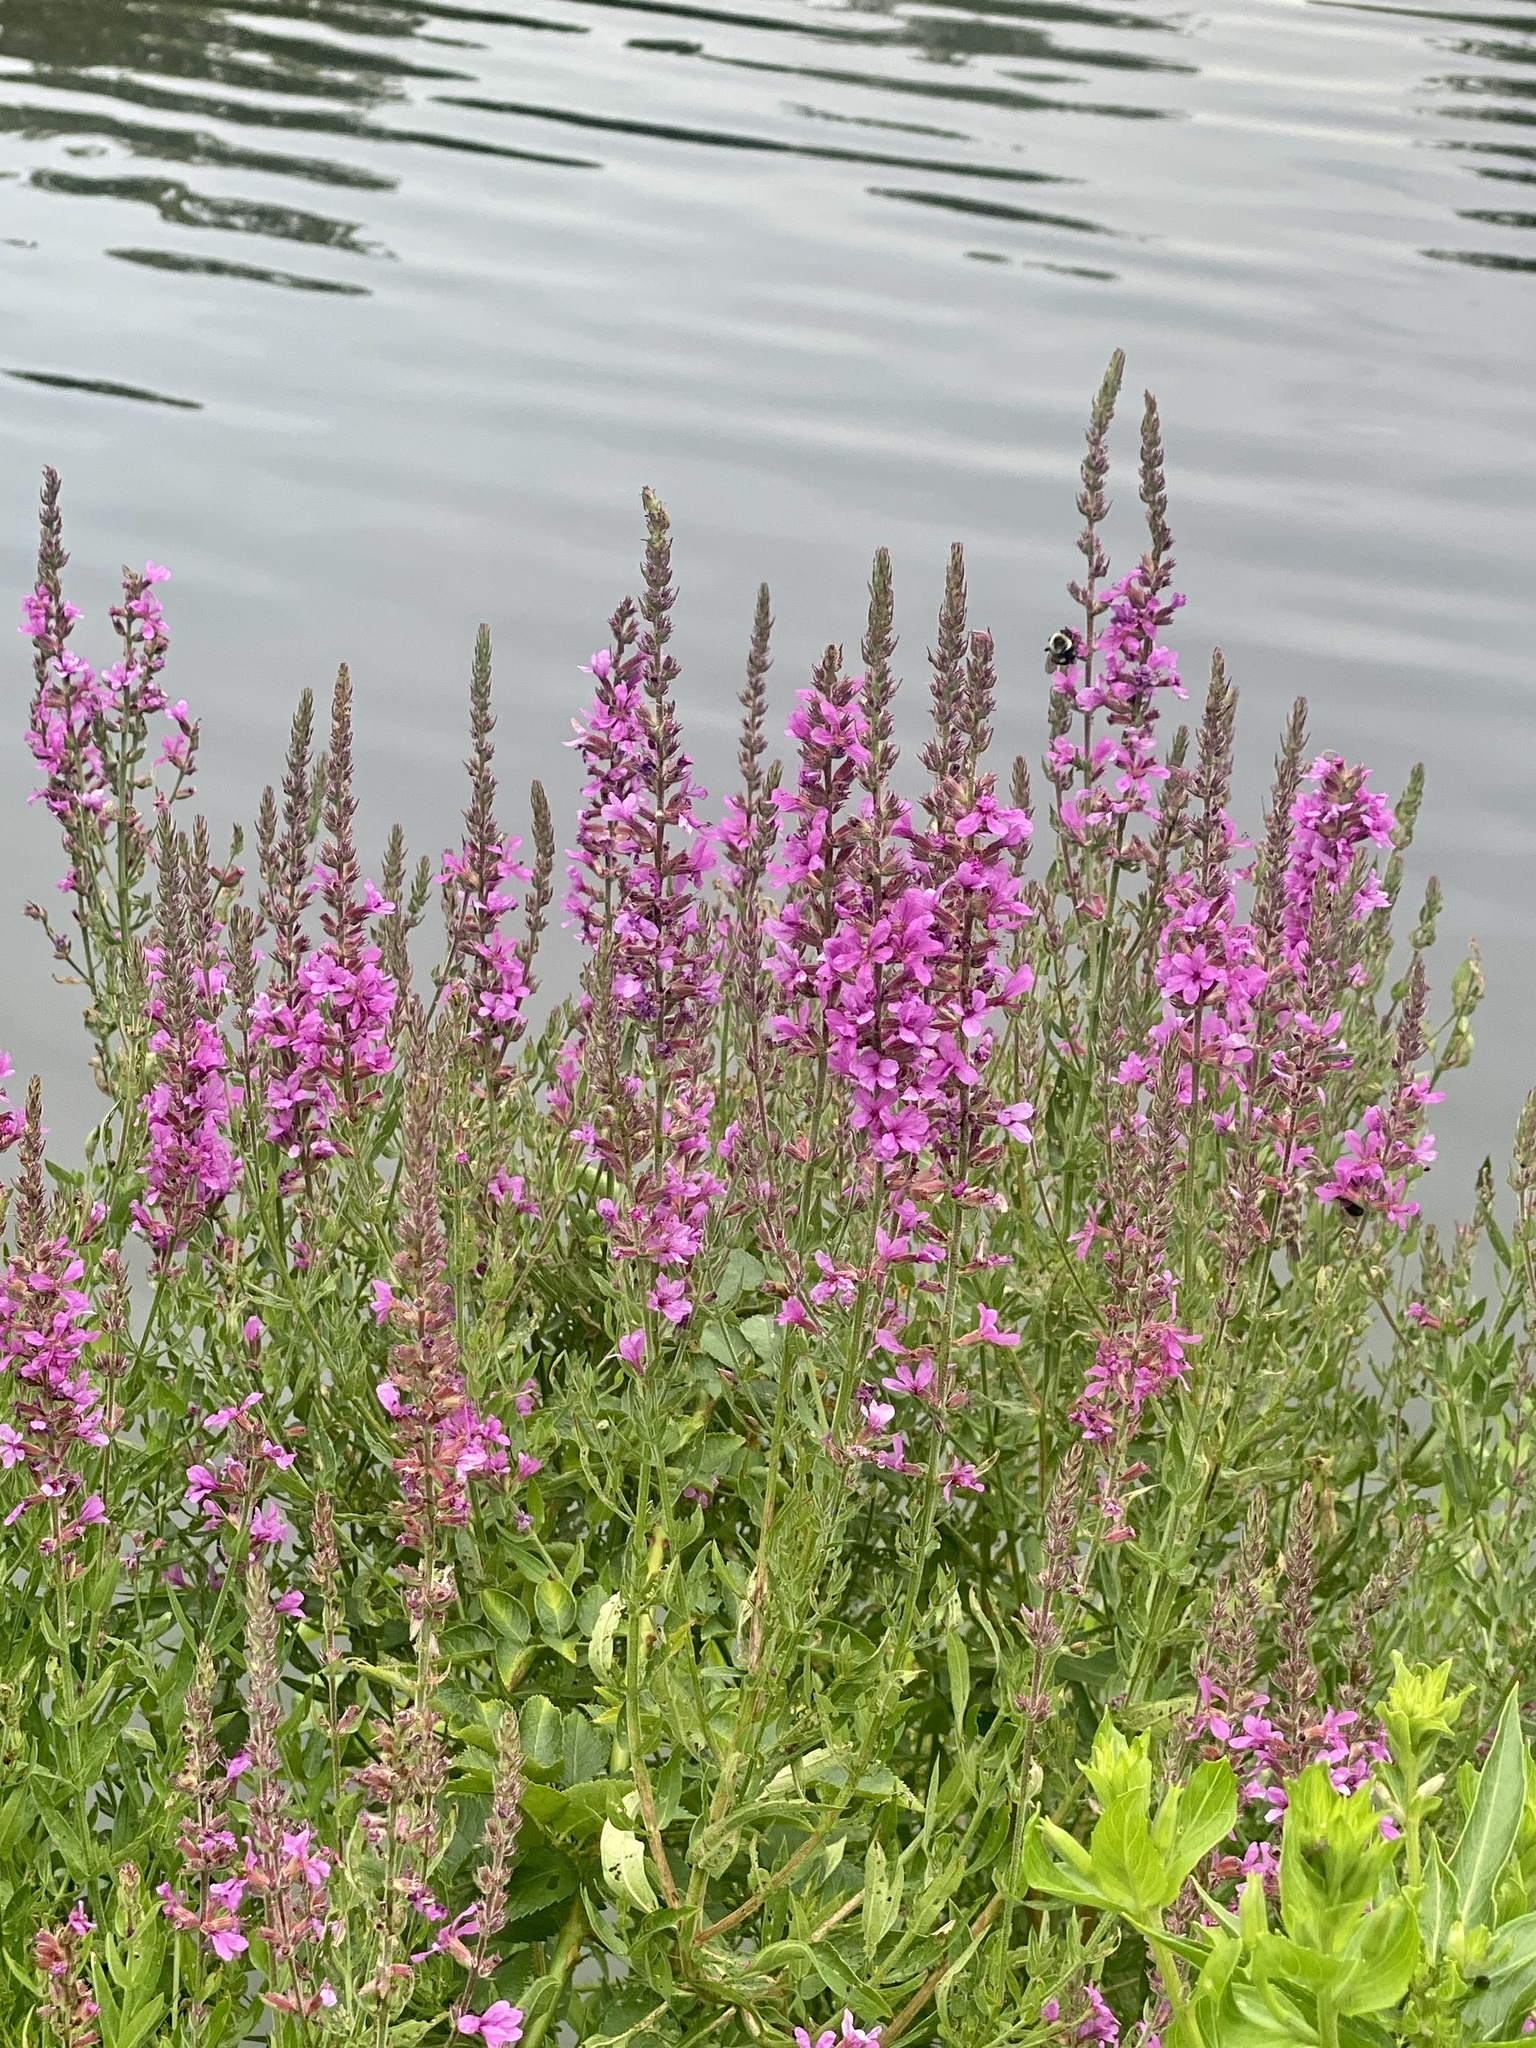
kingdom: Plantae
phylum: Tracheophyta
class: Magnoliopsida
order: Myrtales
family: Lythraceae
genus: Lythrum
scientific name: Lythrum salicaria
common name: Purple loosestrife
